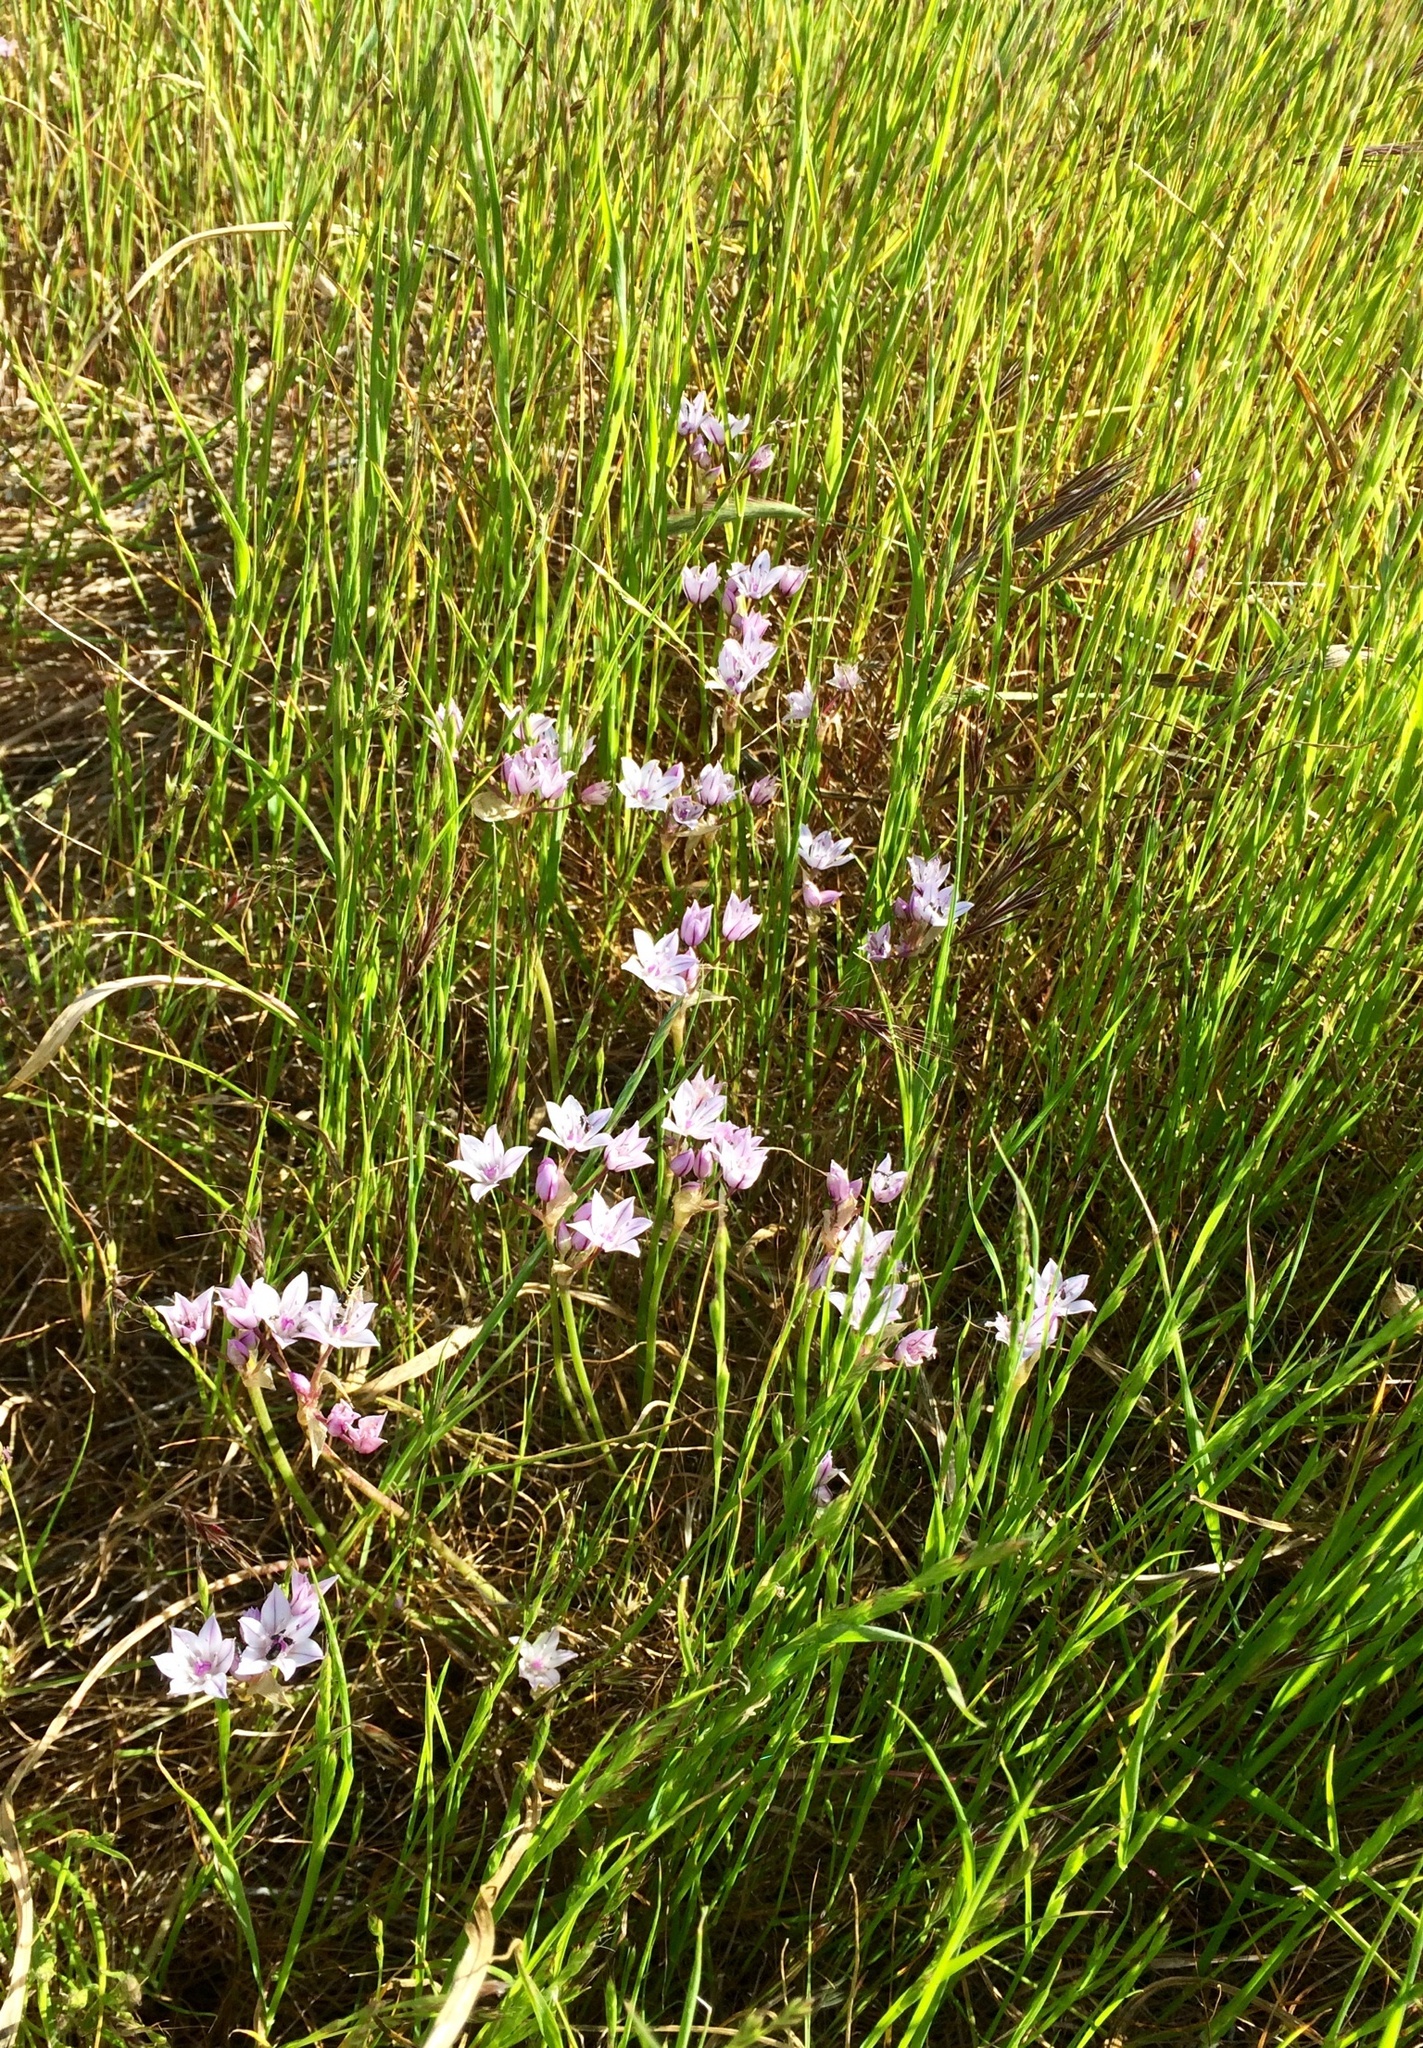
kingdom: Plantae
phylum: Tracheophyta
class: Liliopsida
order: Asparagales
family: Amaryllidaceae
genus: Allium
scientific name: Allium praecox
